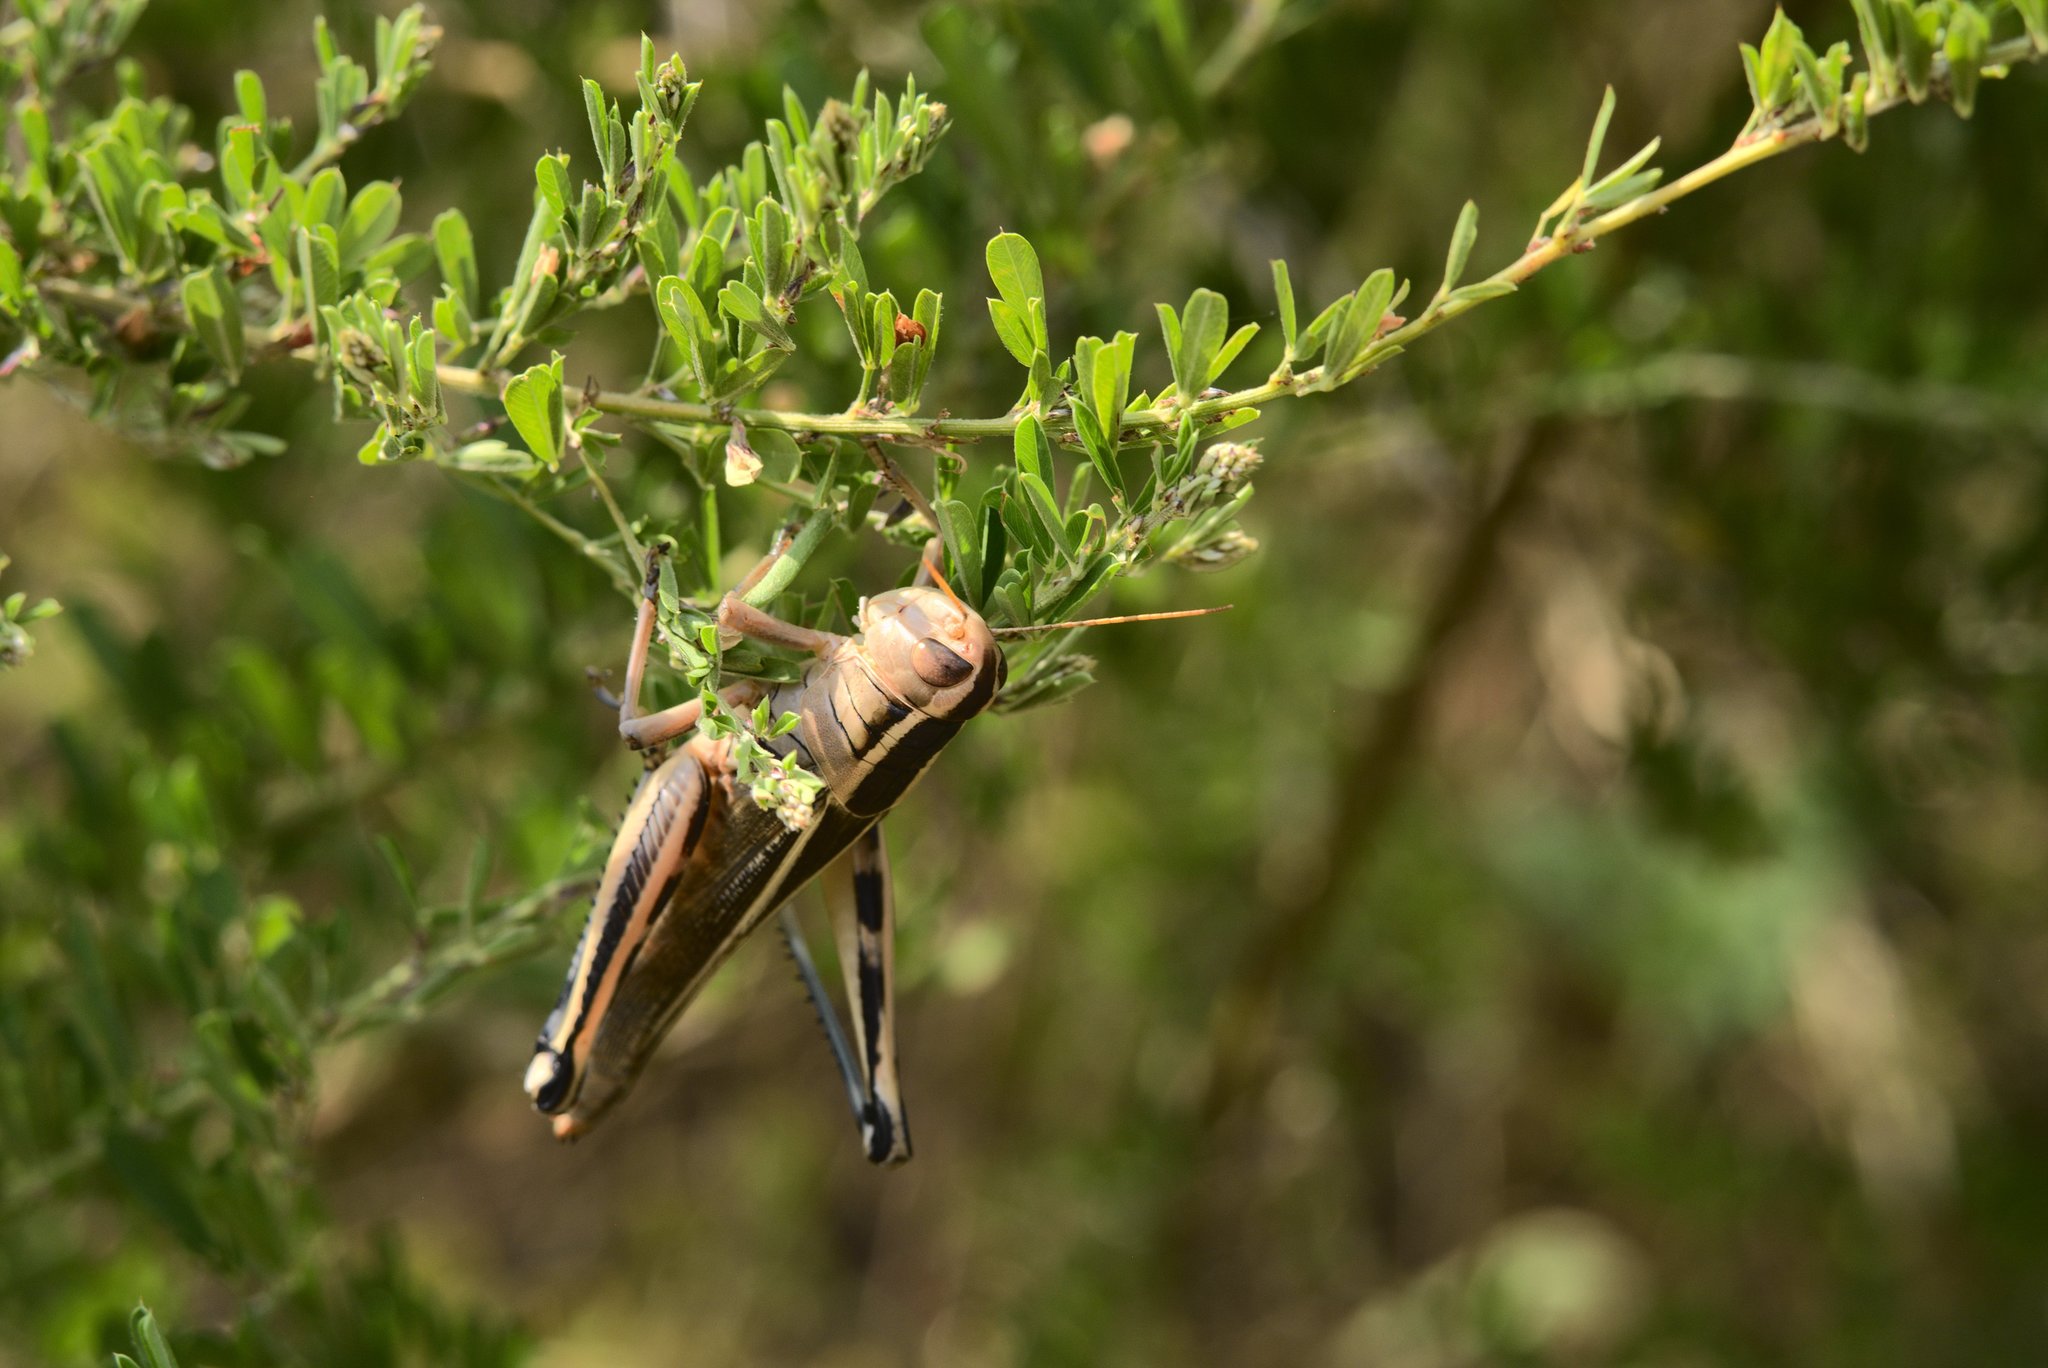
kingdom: Animalia
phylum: Arthropoda
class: Insecta
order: Orthoptera
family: Acrididae
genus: Melanoplus
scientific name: Melanoplus bivittatus
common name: Two-striped grasshopper
